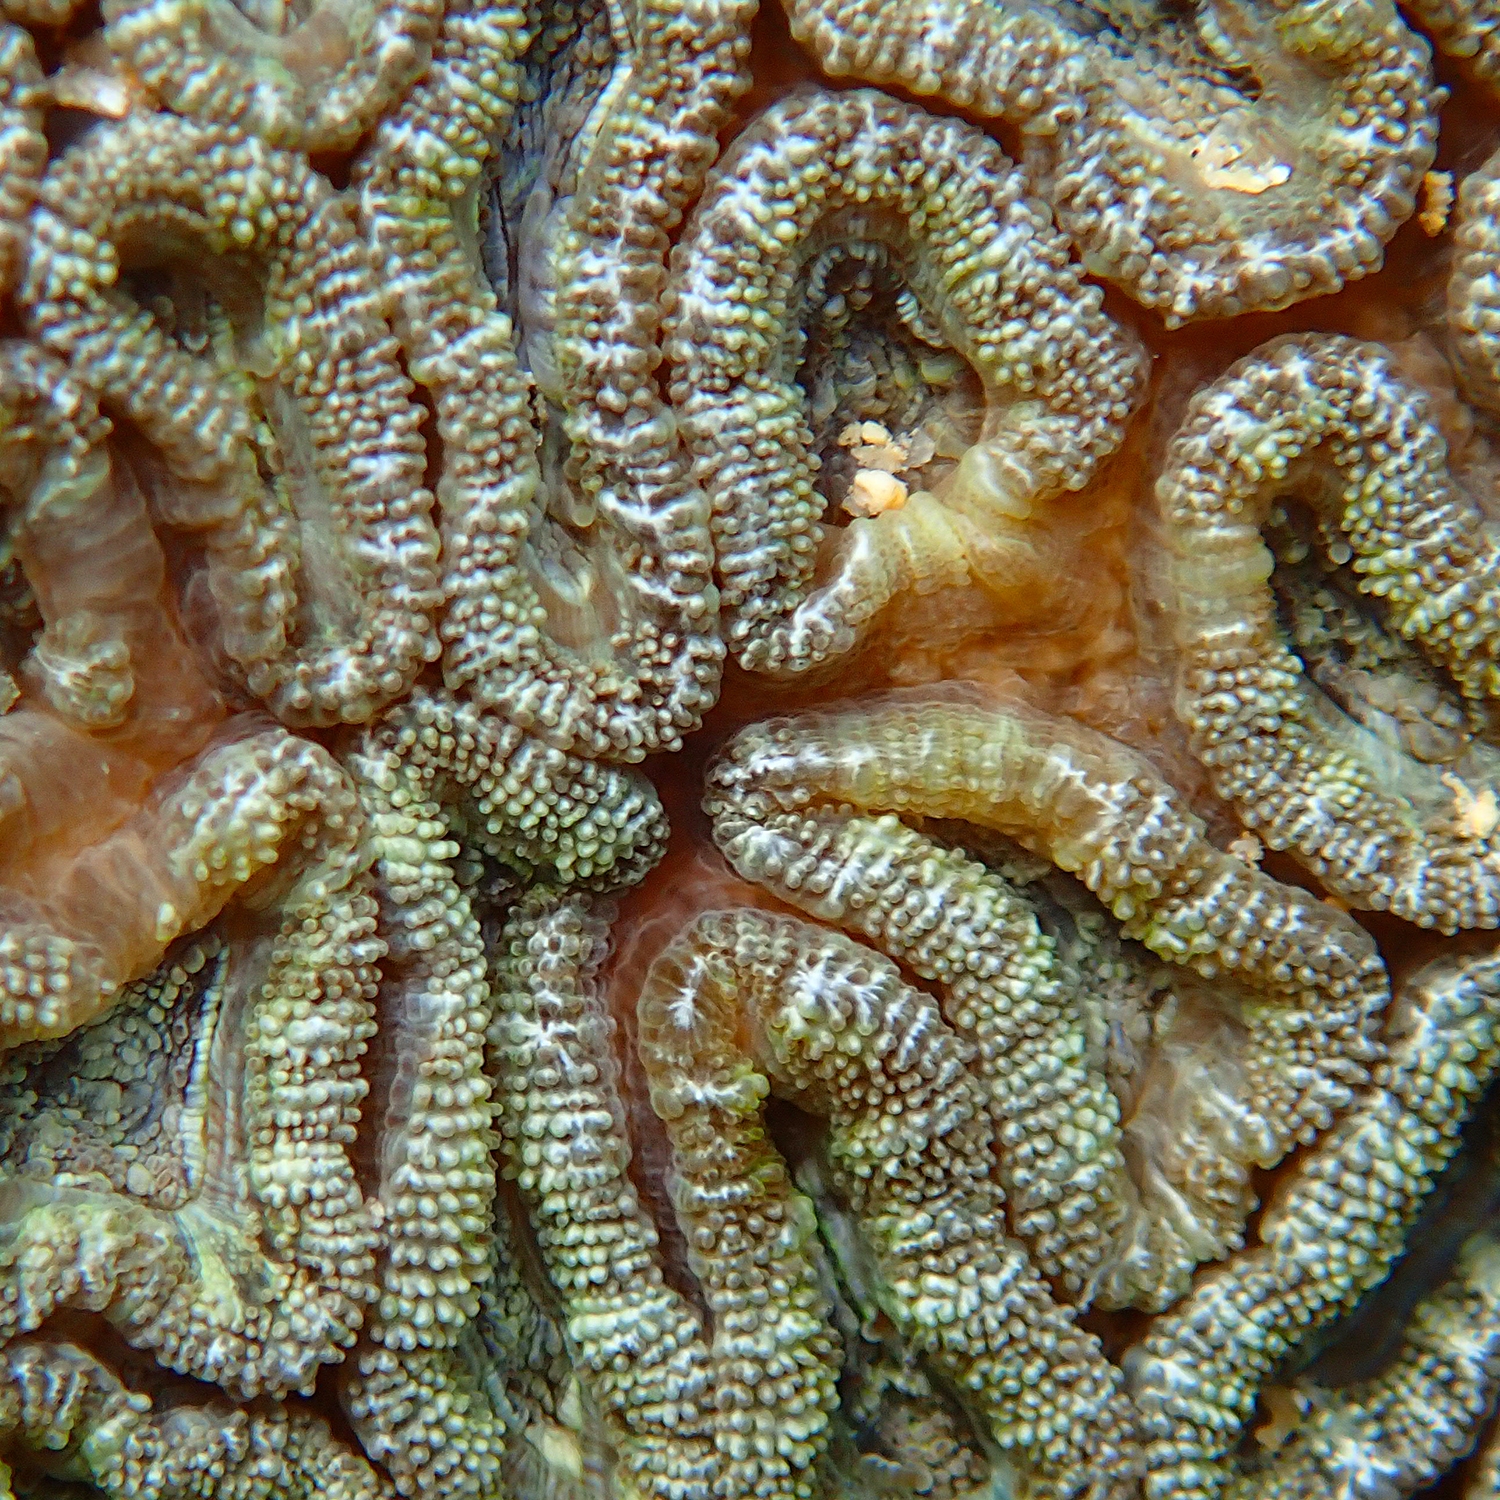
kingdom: Animalia
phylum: Cnidaria
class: Anthozoa
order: Scleractinia
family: Lobophylliidae
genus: Micromussa
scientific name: Micromussa lordhowensis
